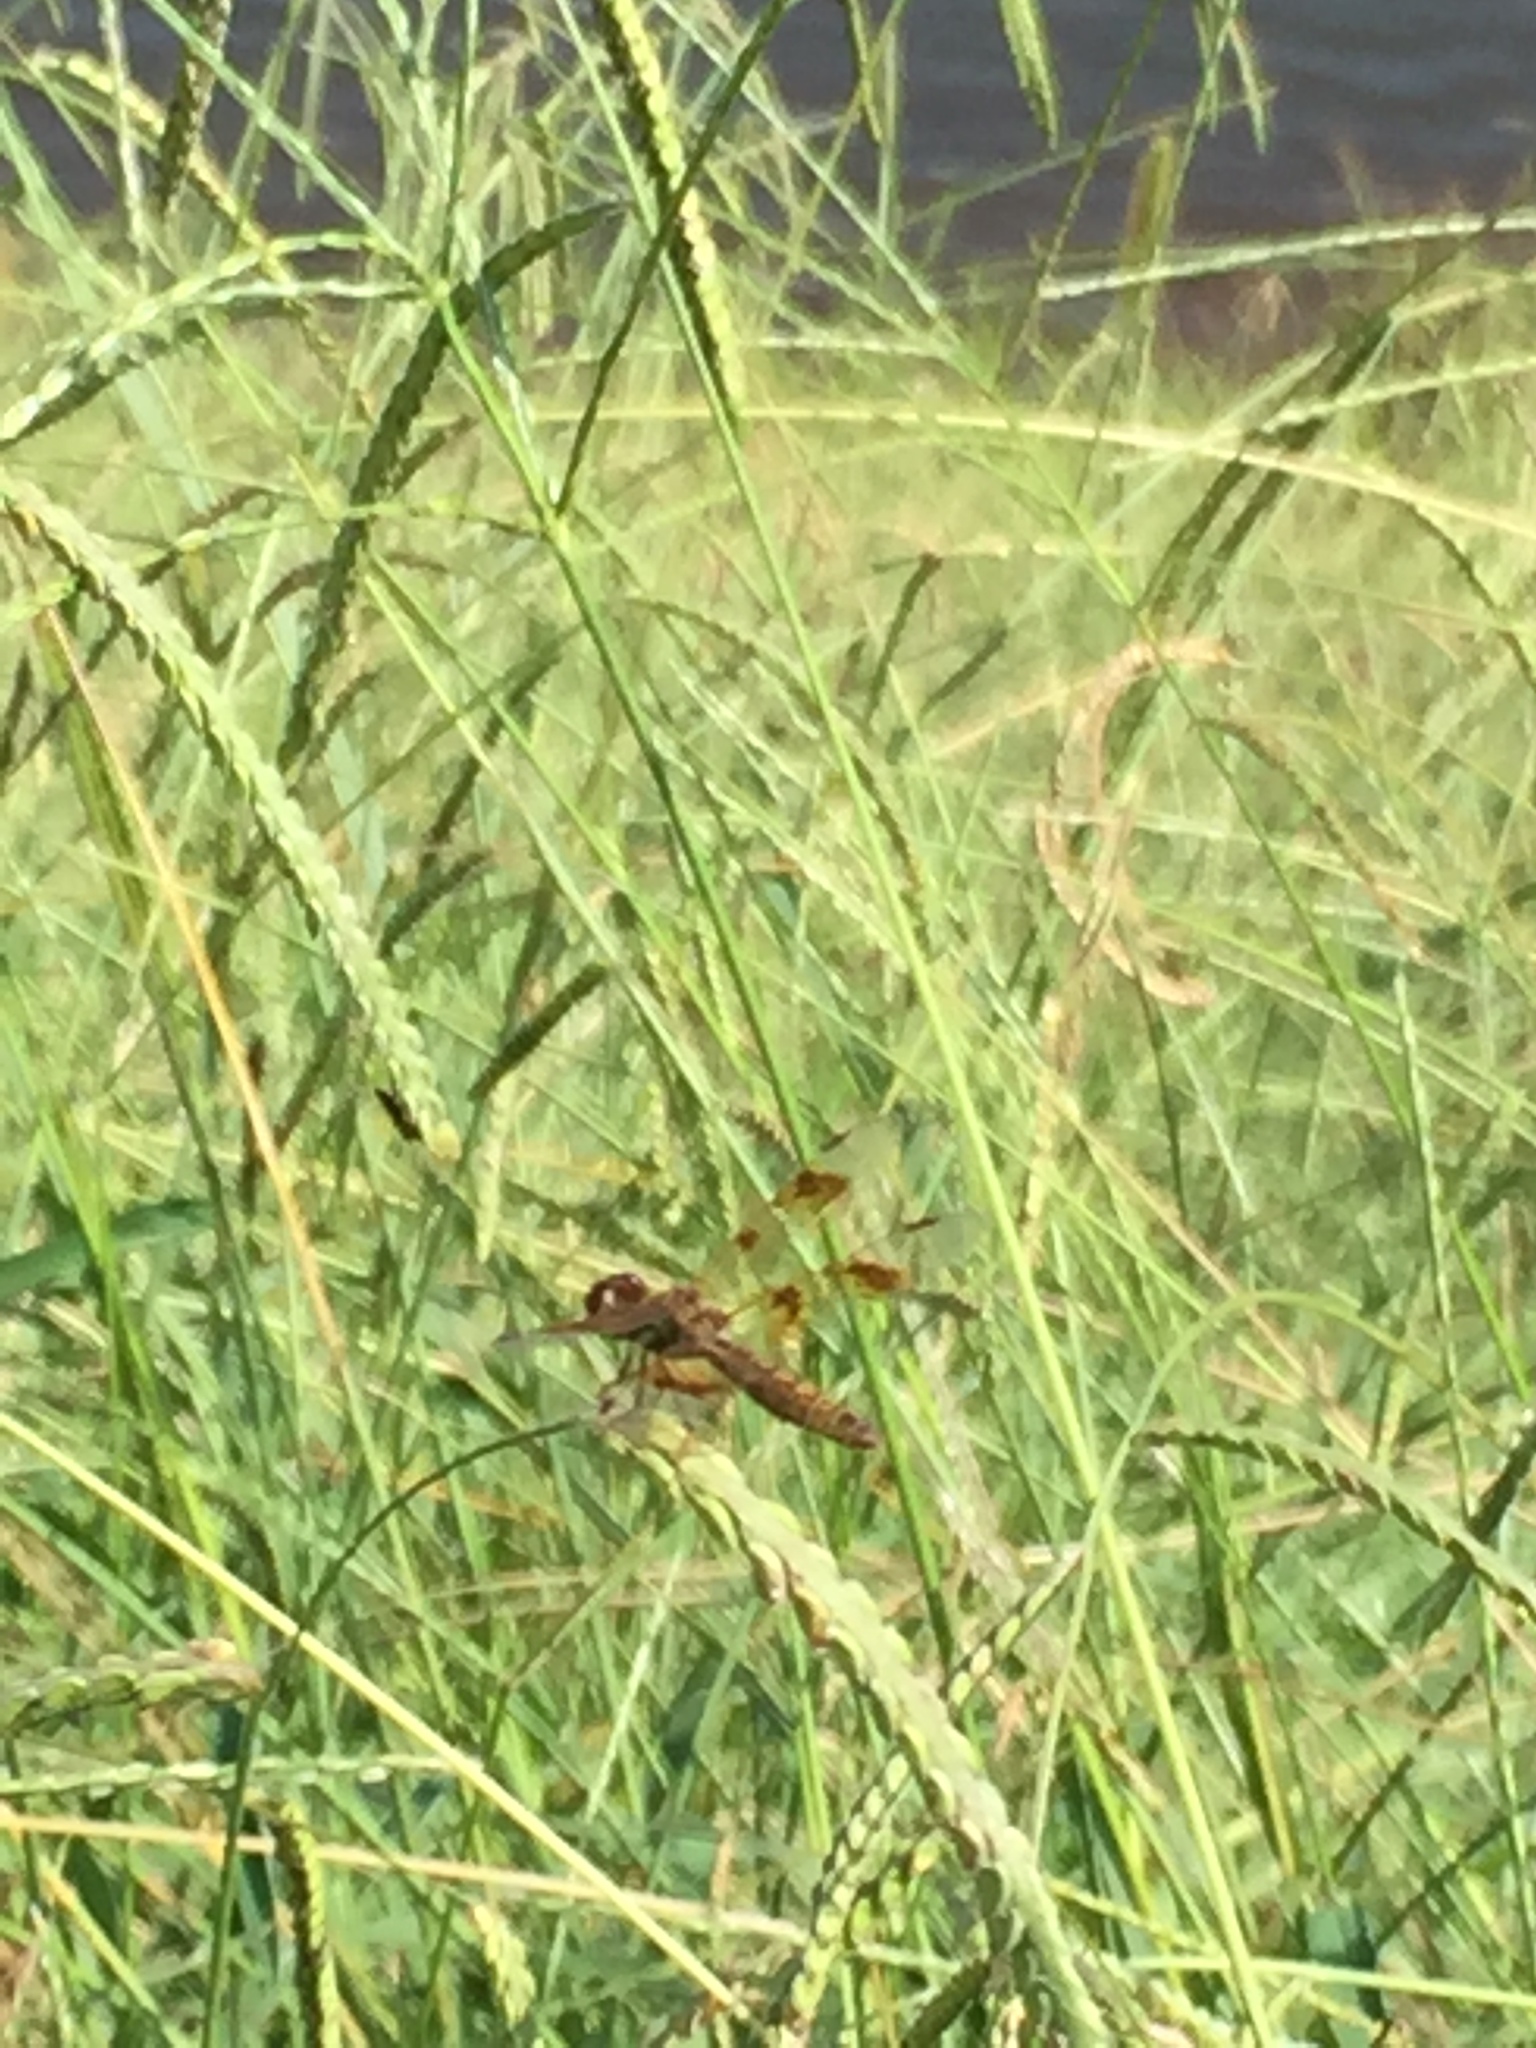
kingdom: Animalia
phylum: Arthropoda
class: Insecta
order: Odonata
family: Libellulidae
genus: Perithemis
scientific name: Perithemis tenera
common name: Eastern amberwing
